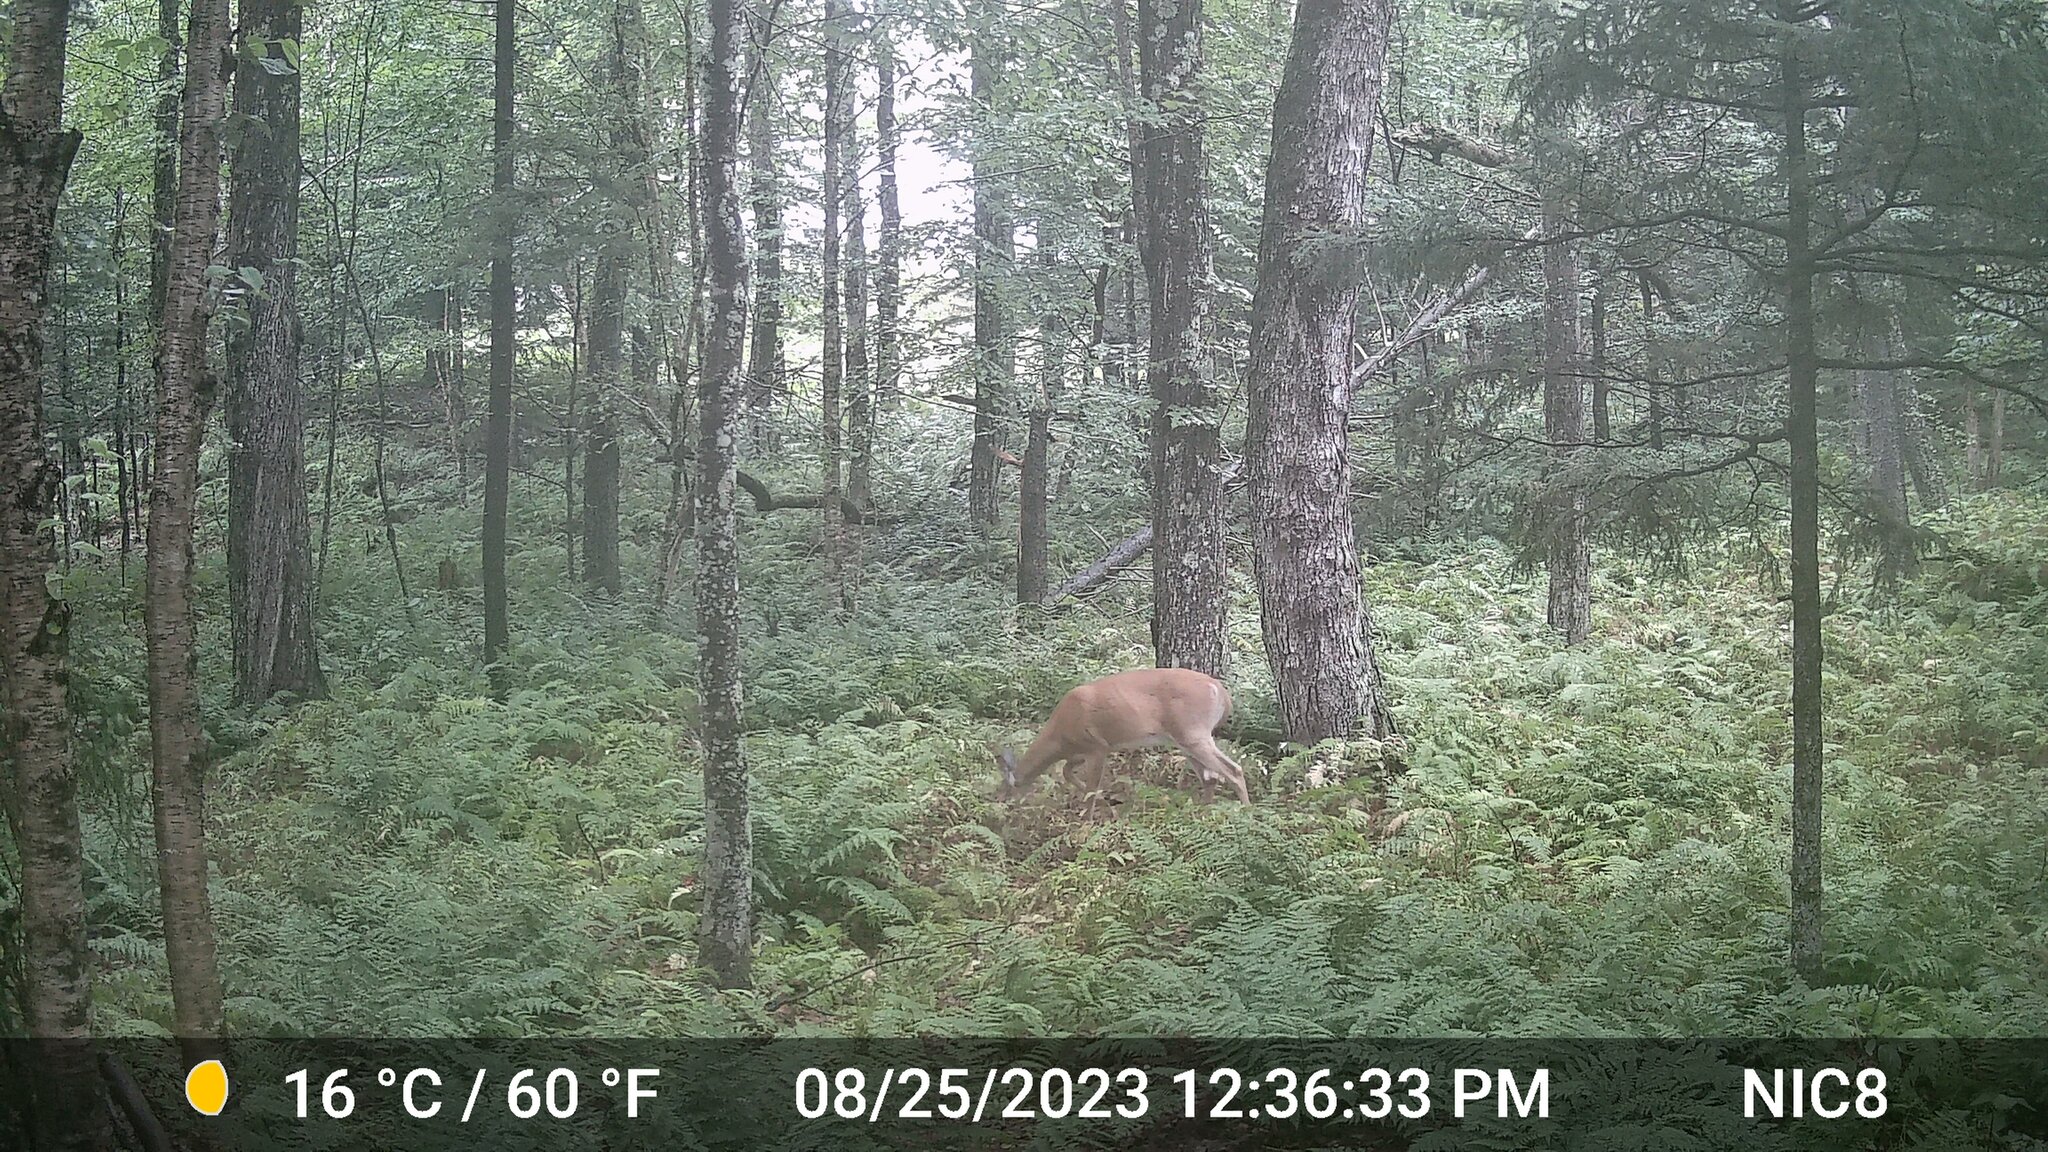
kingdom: Animalia
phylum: Chordata
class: Mammalia
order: Artiodactyla
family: Cervidae
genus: Odocoileus
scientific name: Odocoileus virginianus
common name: White-tailed deer
